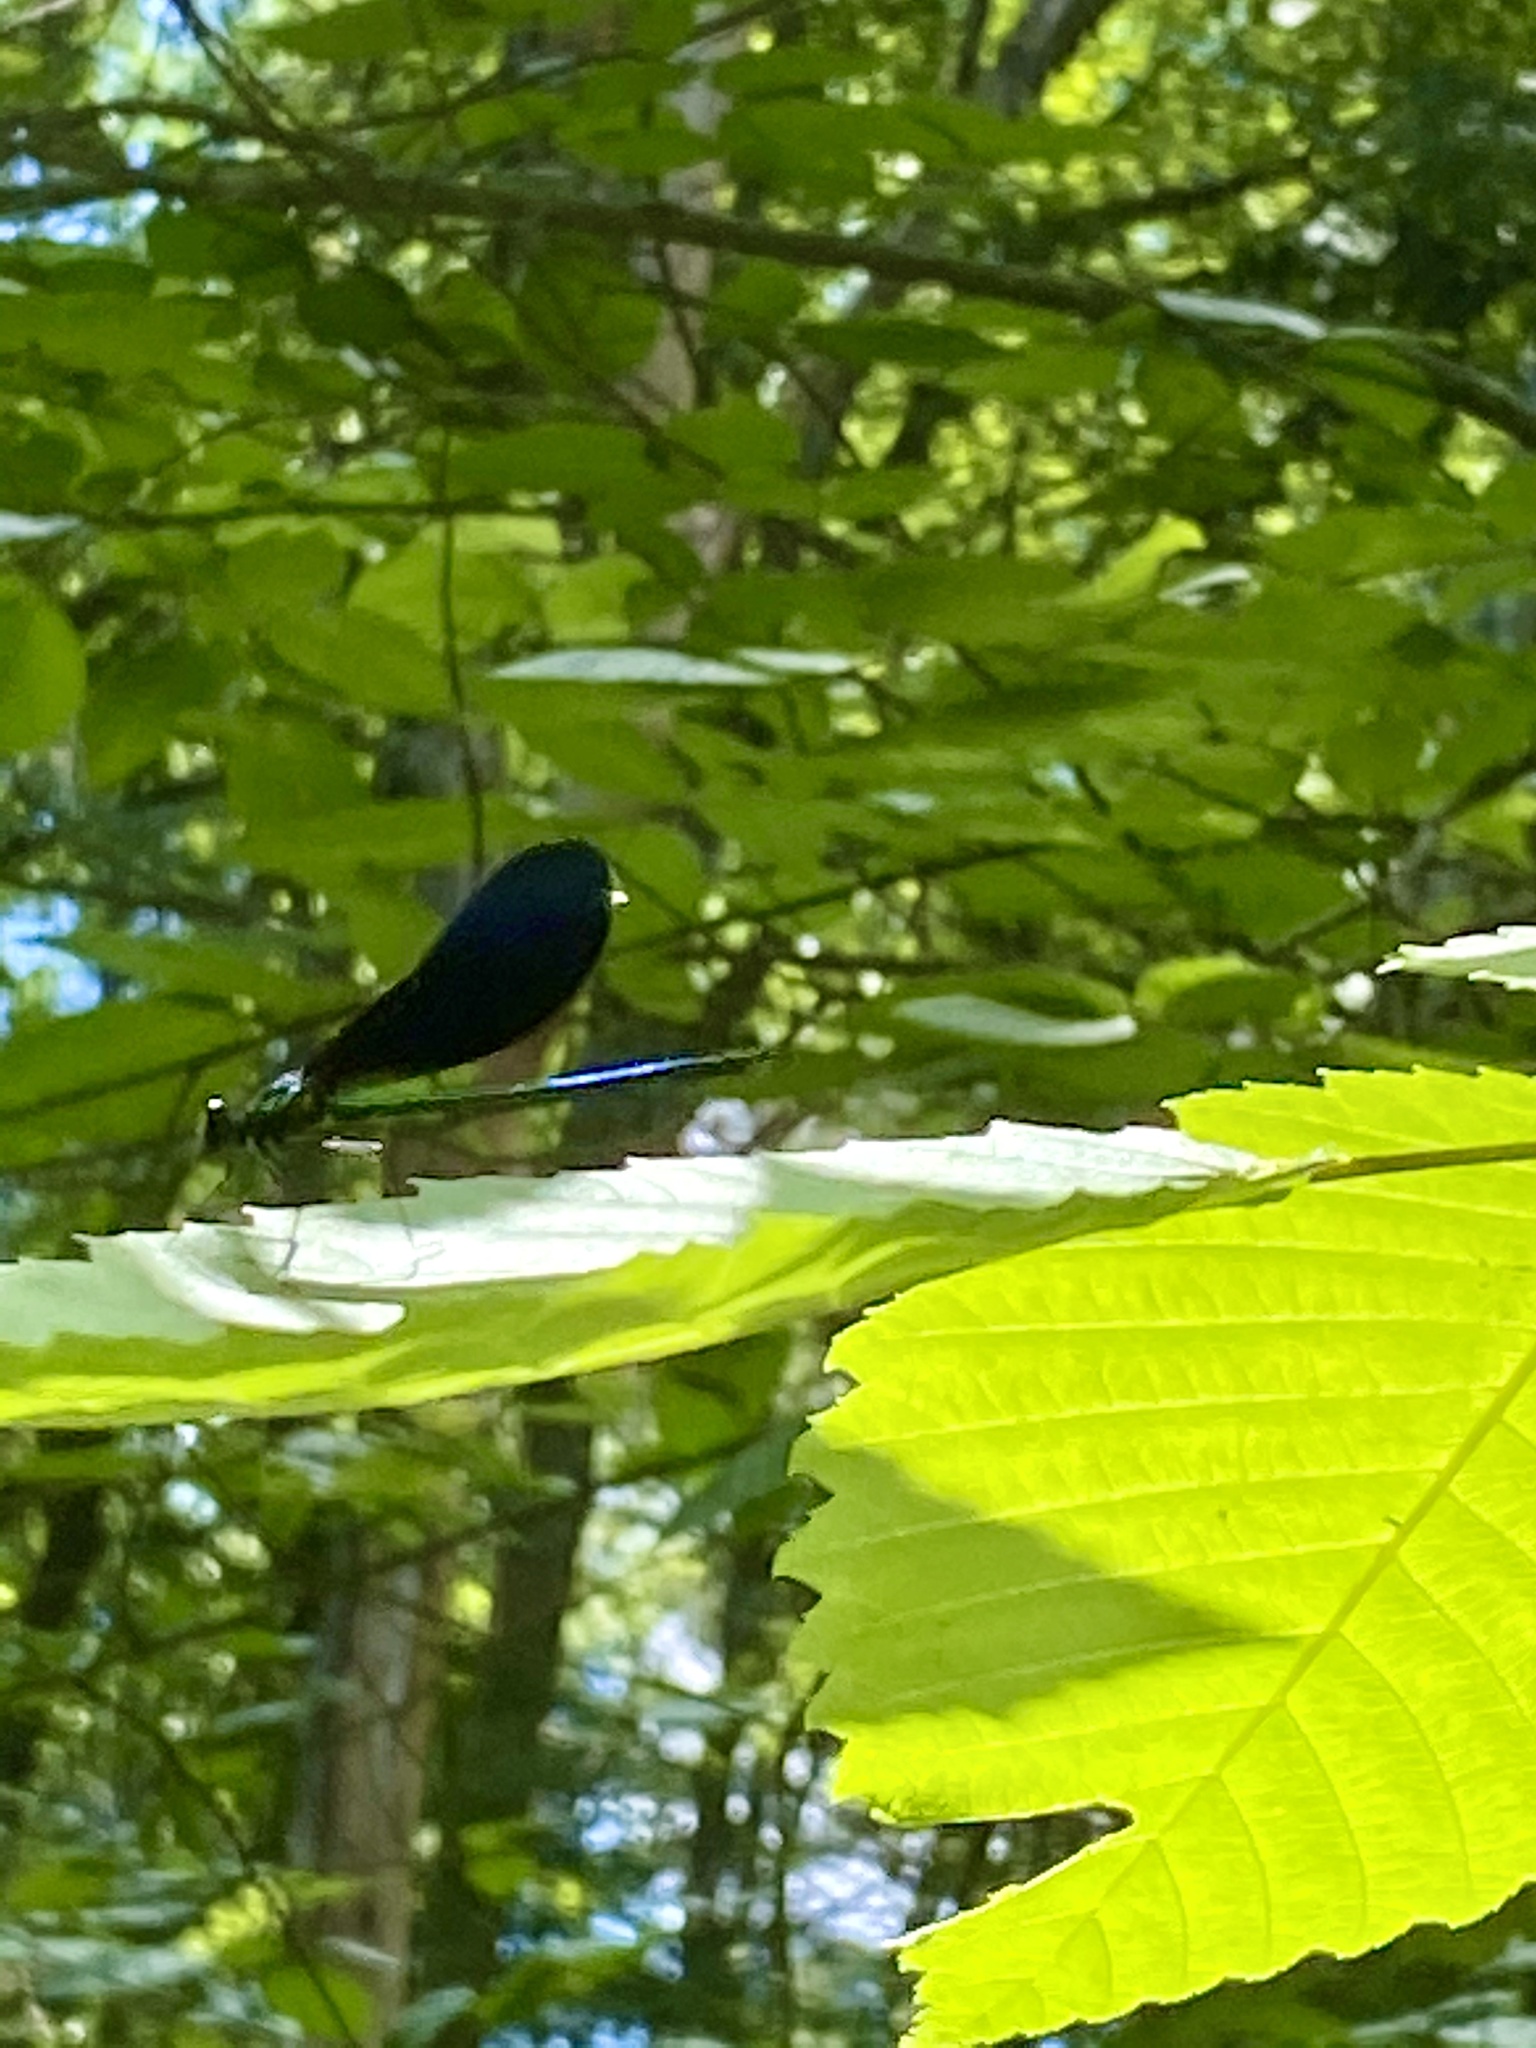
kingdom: Animalia
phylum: Arthropoda
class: Insecta
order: Odonata
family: Calopterygidae
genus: Calopteryx
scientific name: Calopteryx maculata
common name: Ebony jewelwing
